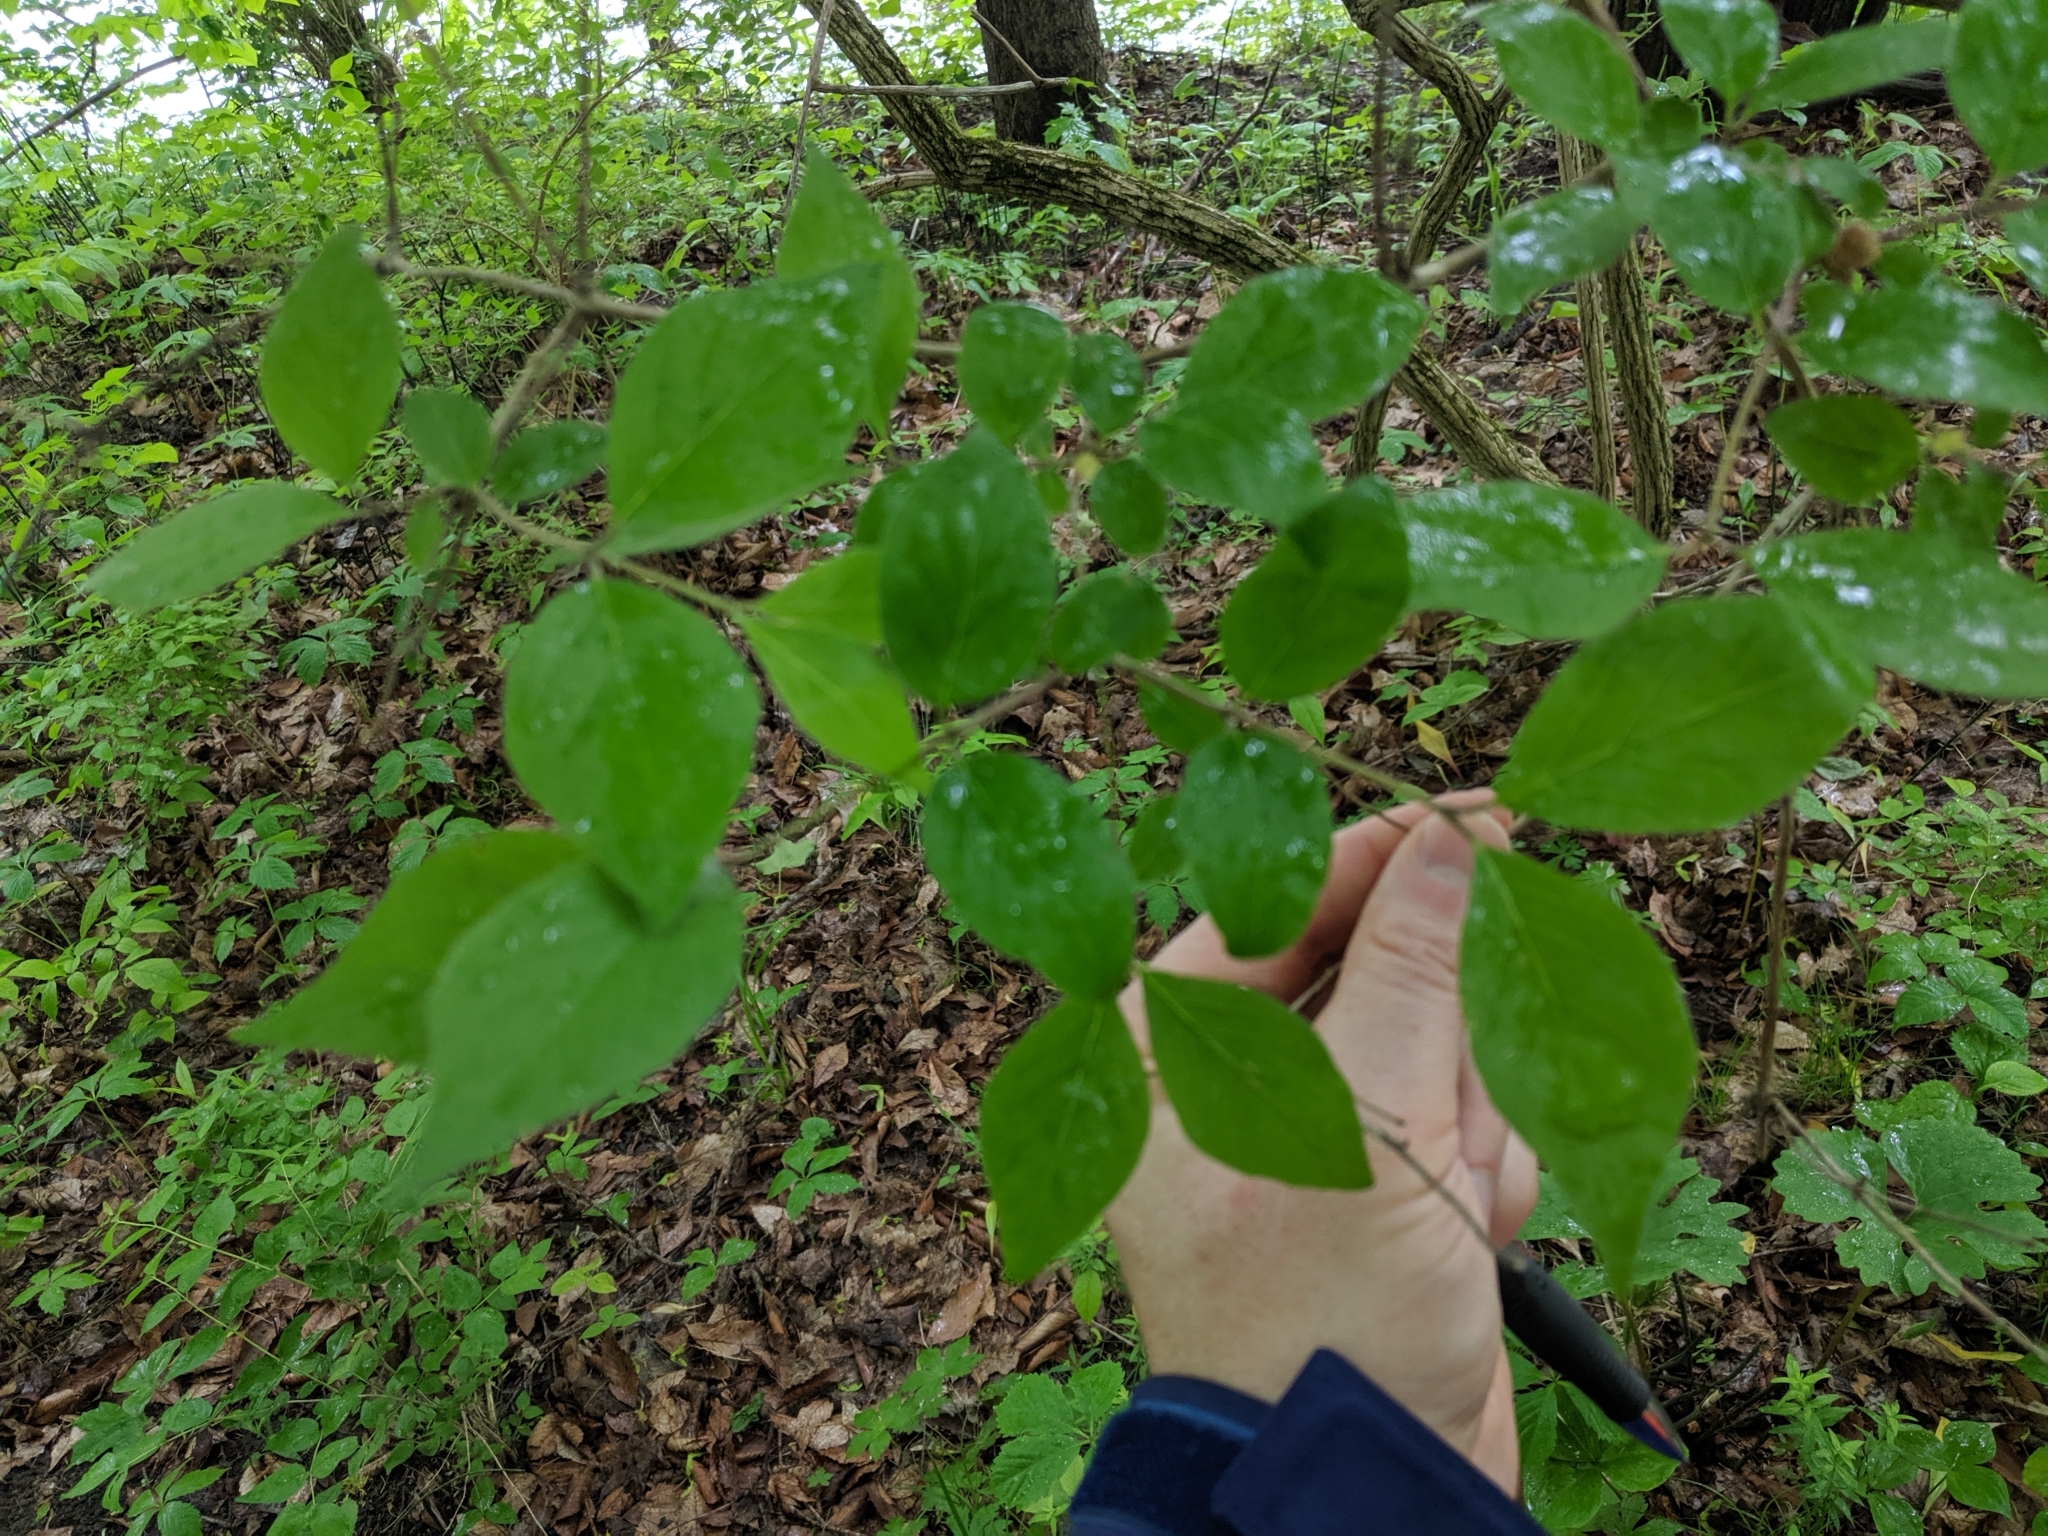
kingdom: Plantae
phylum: Tracheophyta
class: Magnoliopsida
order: Dipsacales
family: Caprifoliaceae
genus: Lonicera
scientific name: Lonicera maackii
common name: Amur honeysuckle
